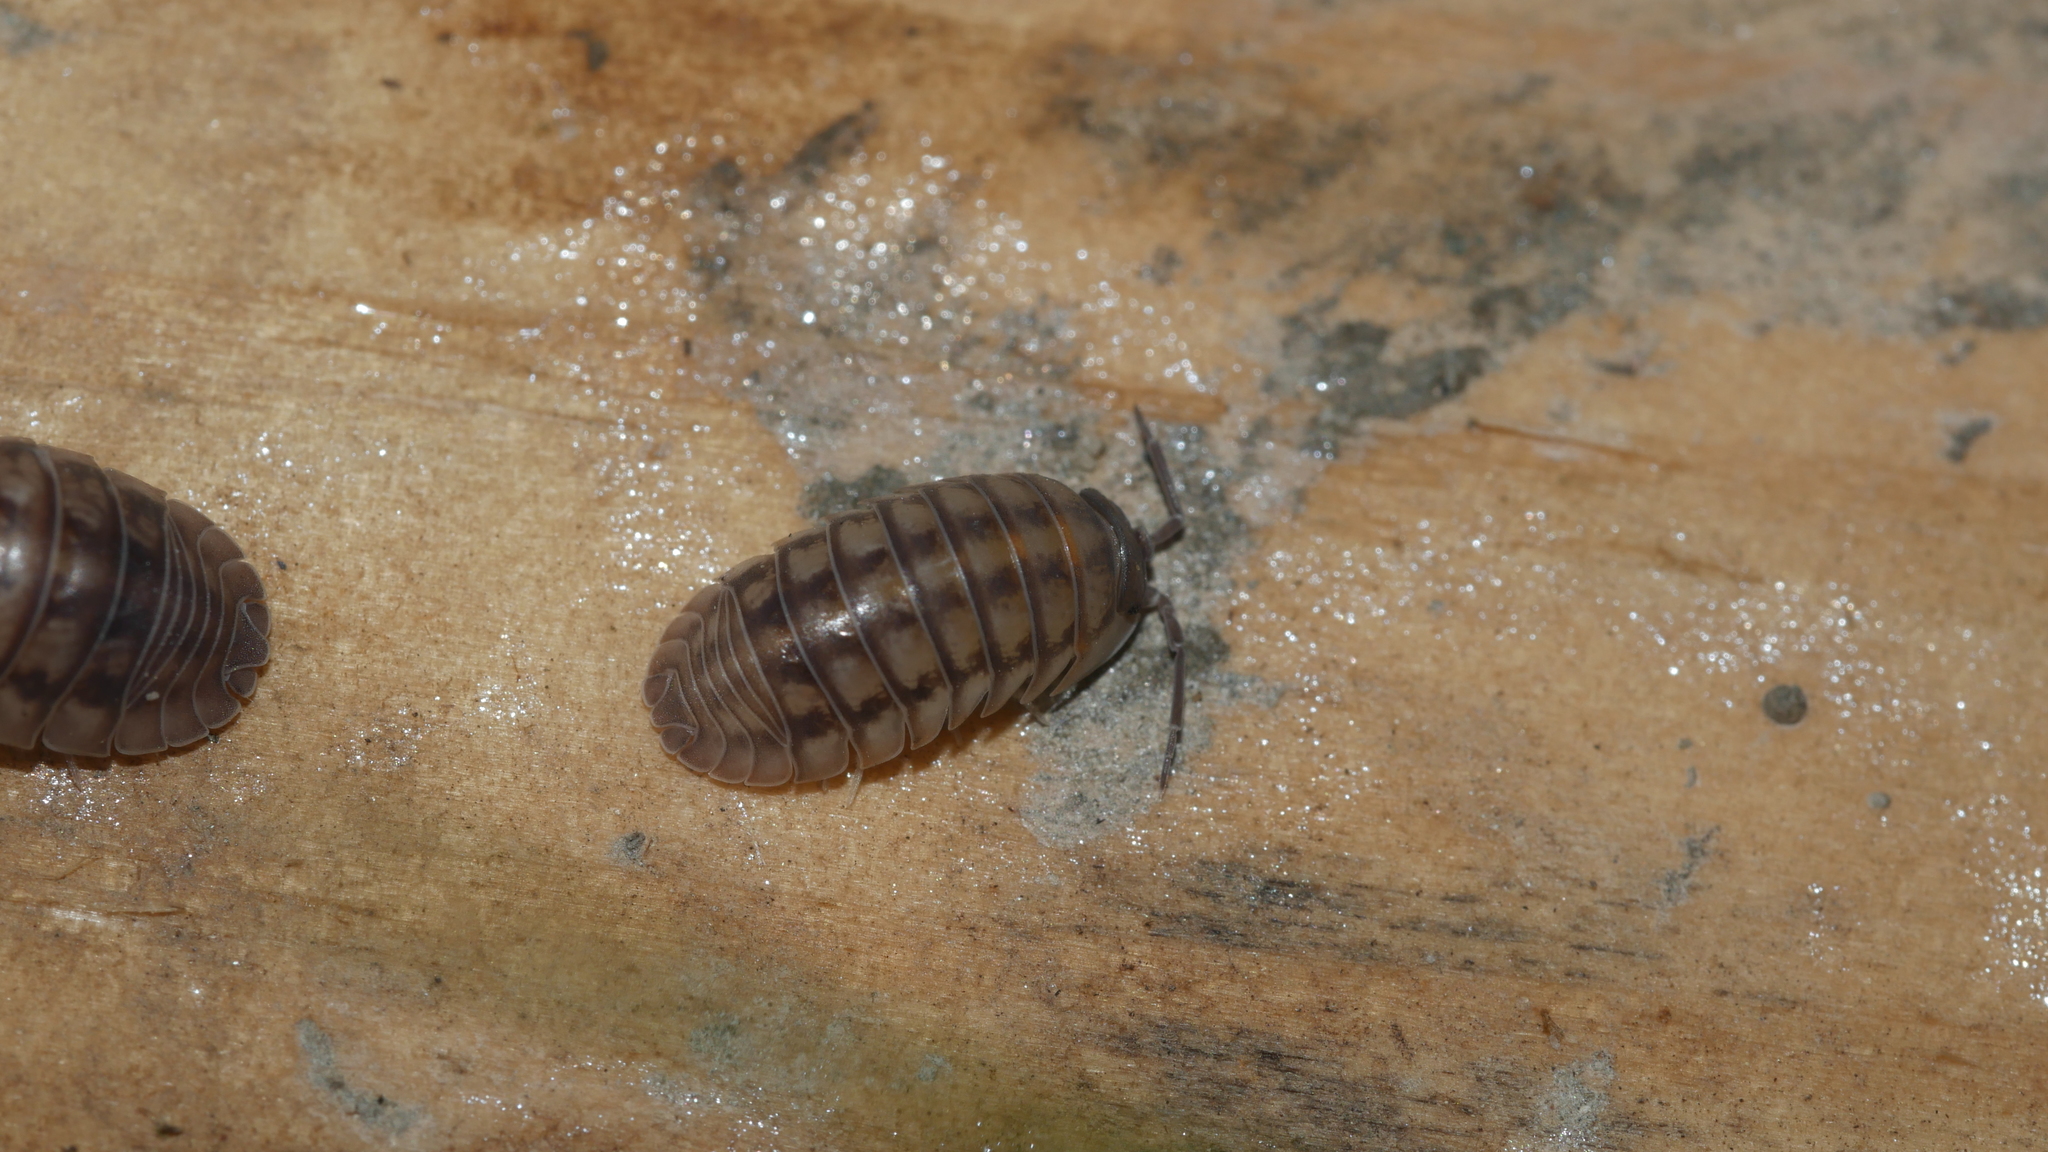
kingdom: Animalia
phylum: Arthropoda
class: Malacostraca
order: Isopoda
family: Armadillidiidae
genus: Armadillidium
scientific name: Armadillidium nasatum
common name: Isopod
